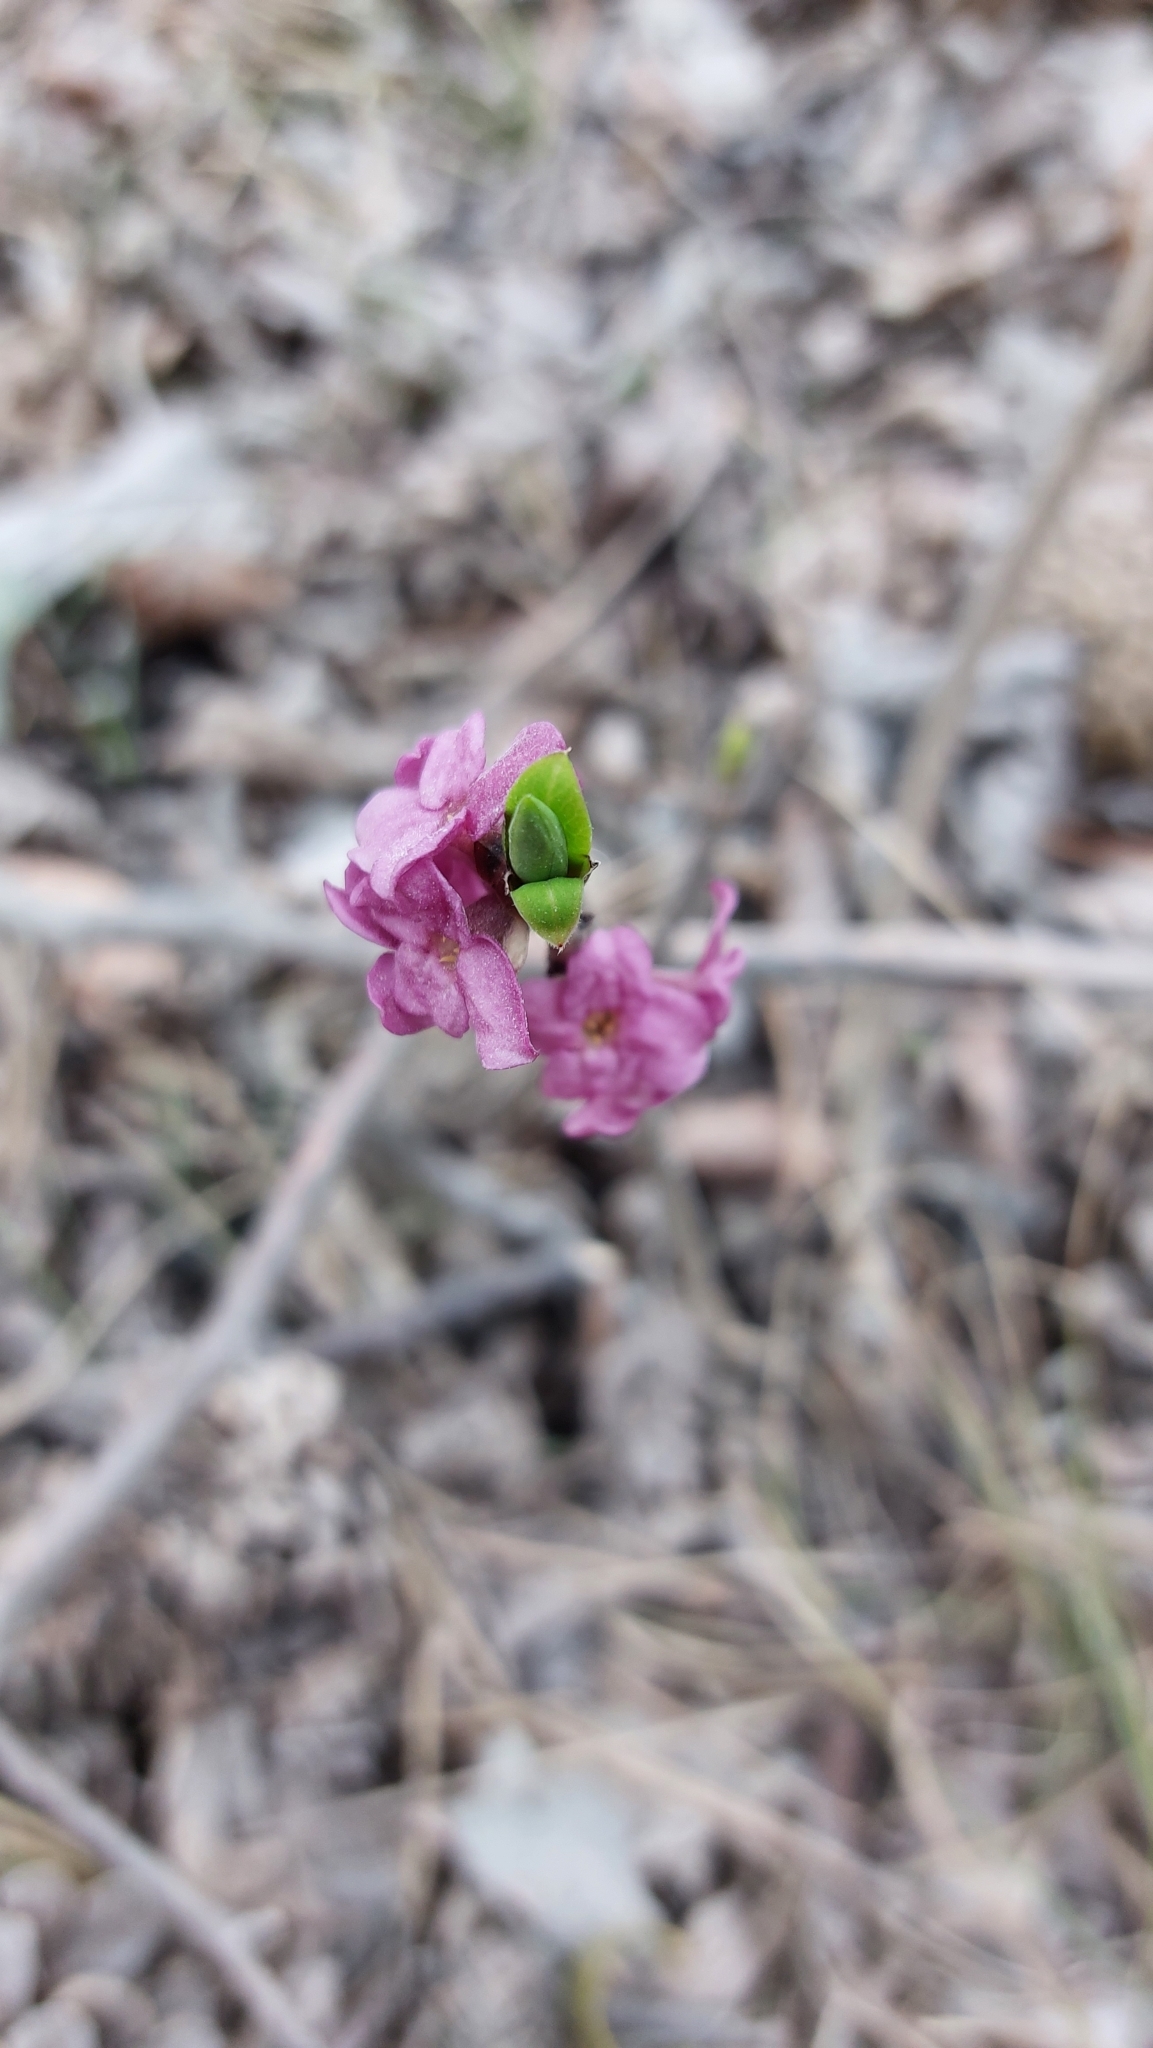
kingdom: Plantae
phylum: Tracheophyta
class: Magnoliopsida
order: Malvales
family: Thymelaeaceae
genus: Daphne
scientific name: Daphne mezereum
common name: Mezereon
